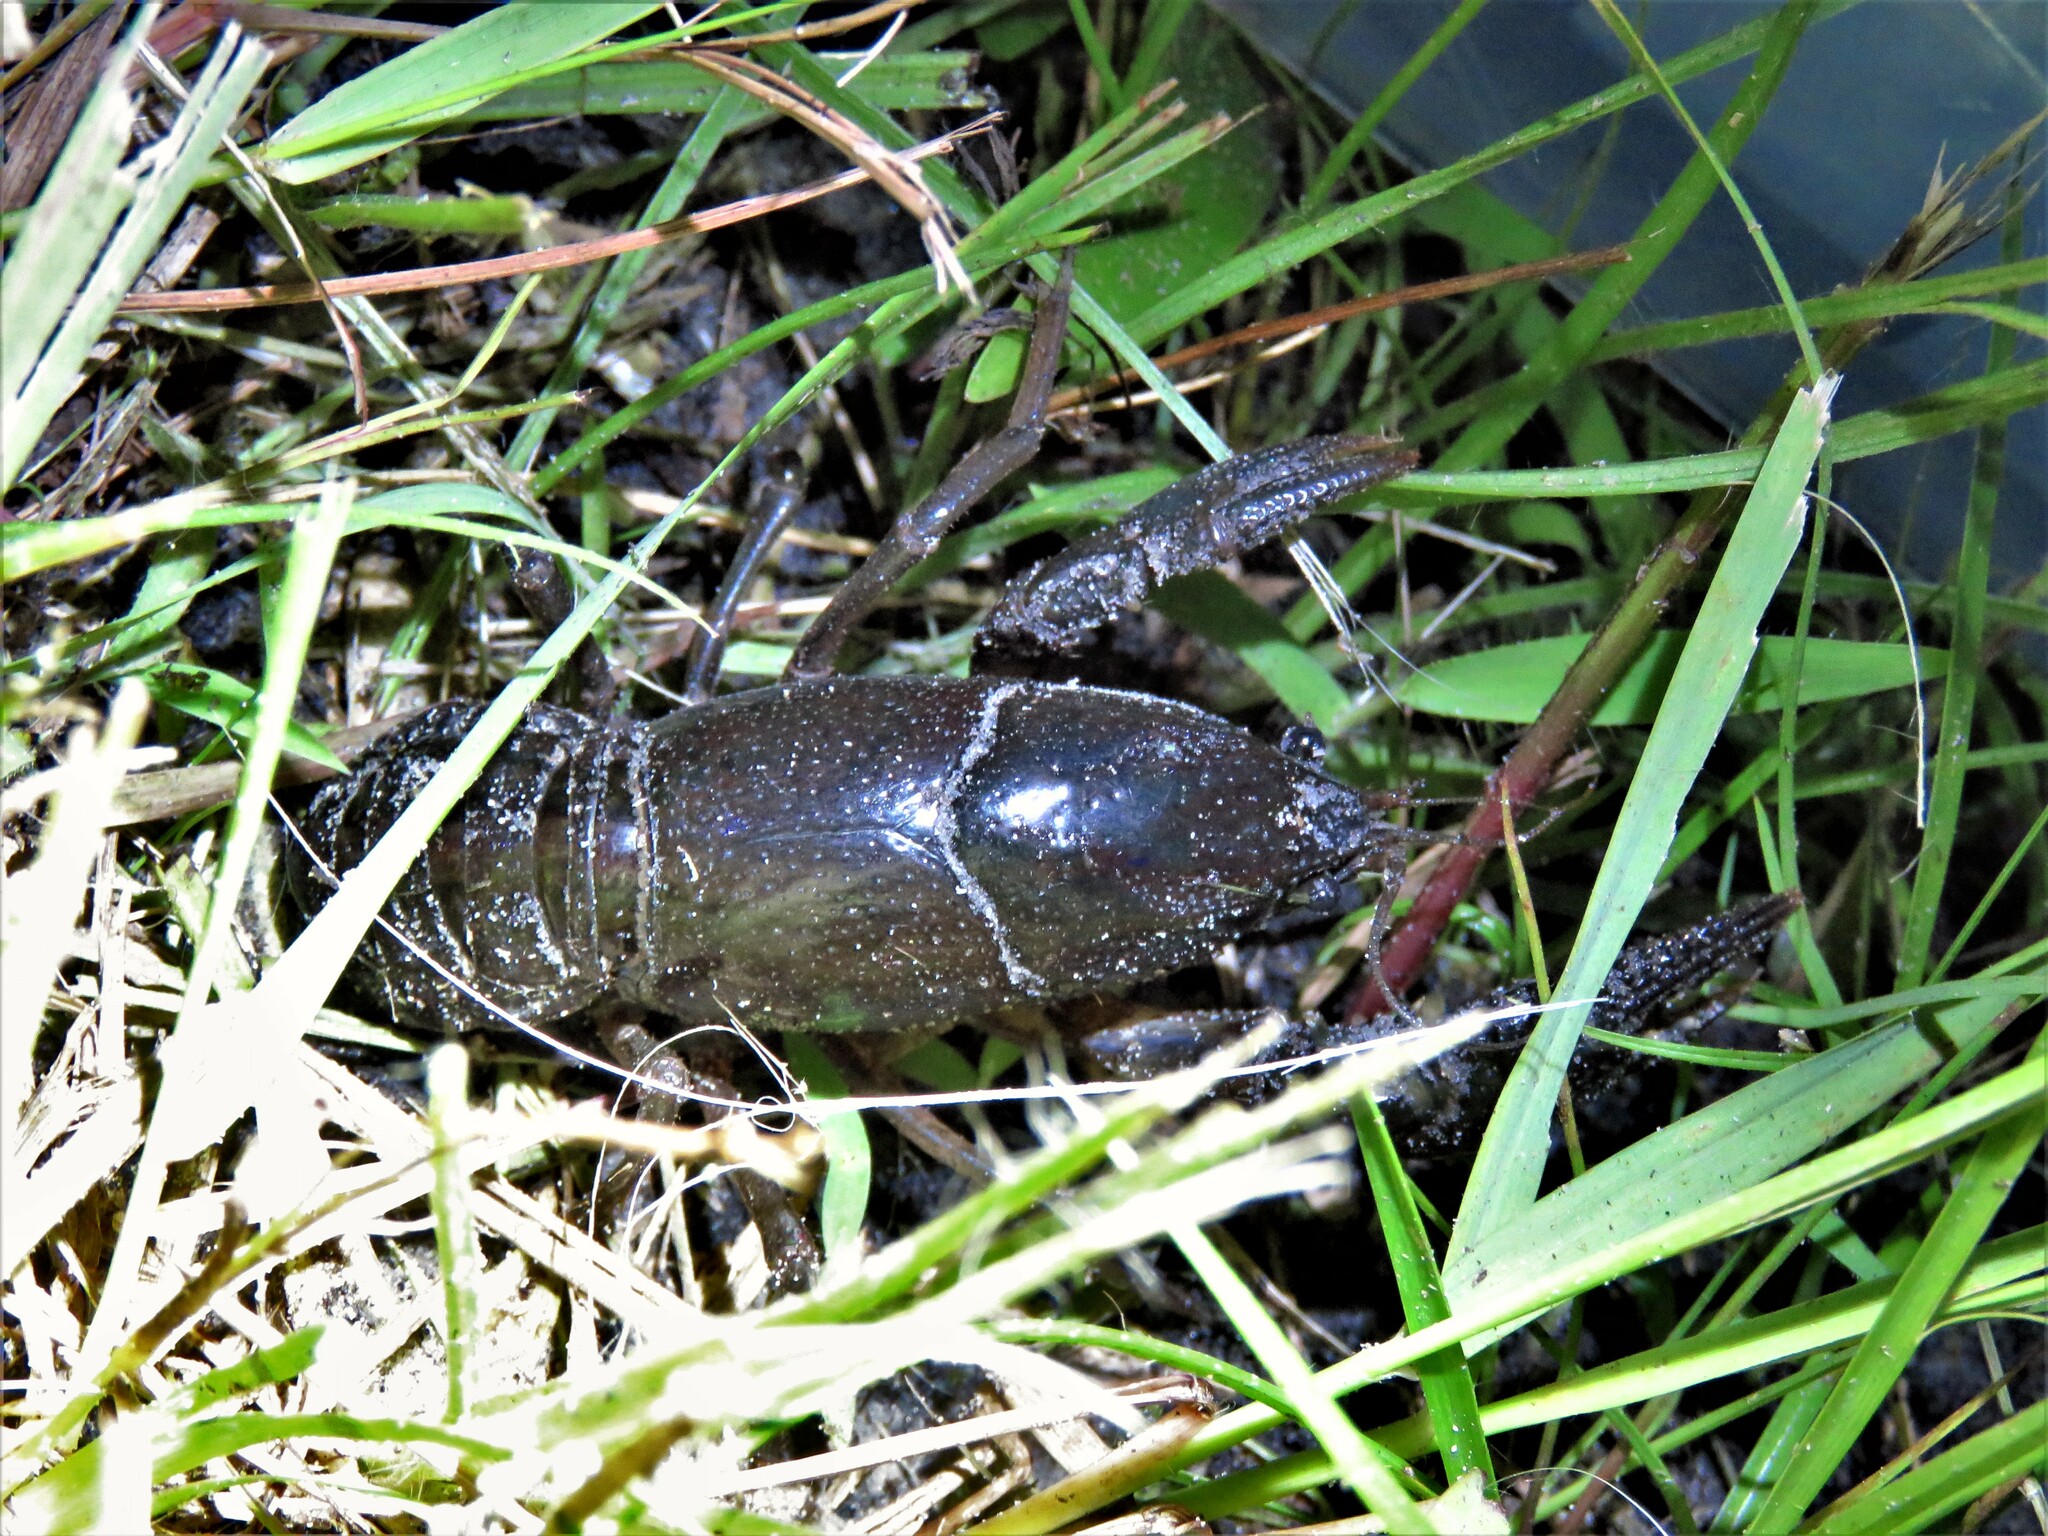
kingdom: Animalia
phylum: Arthropoda
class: Malacostraca
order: Decapoda
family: Cambaridae
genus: Creaserinus
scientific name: Creaserinus fodiens
